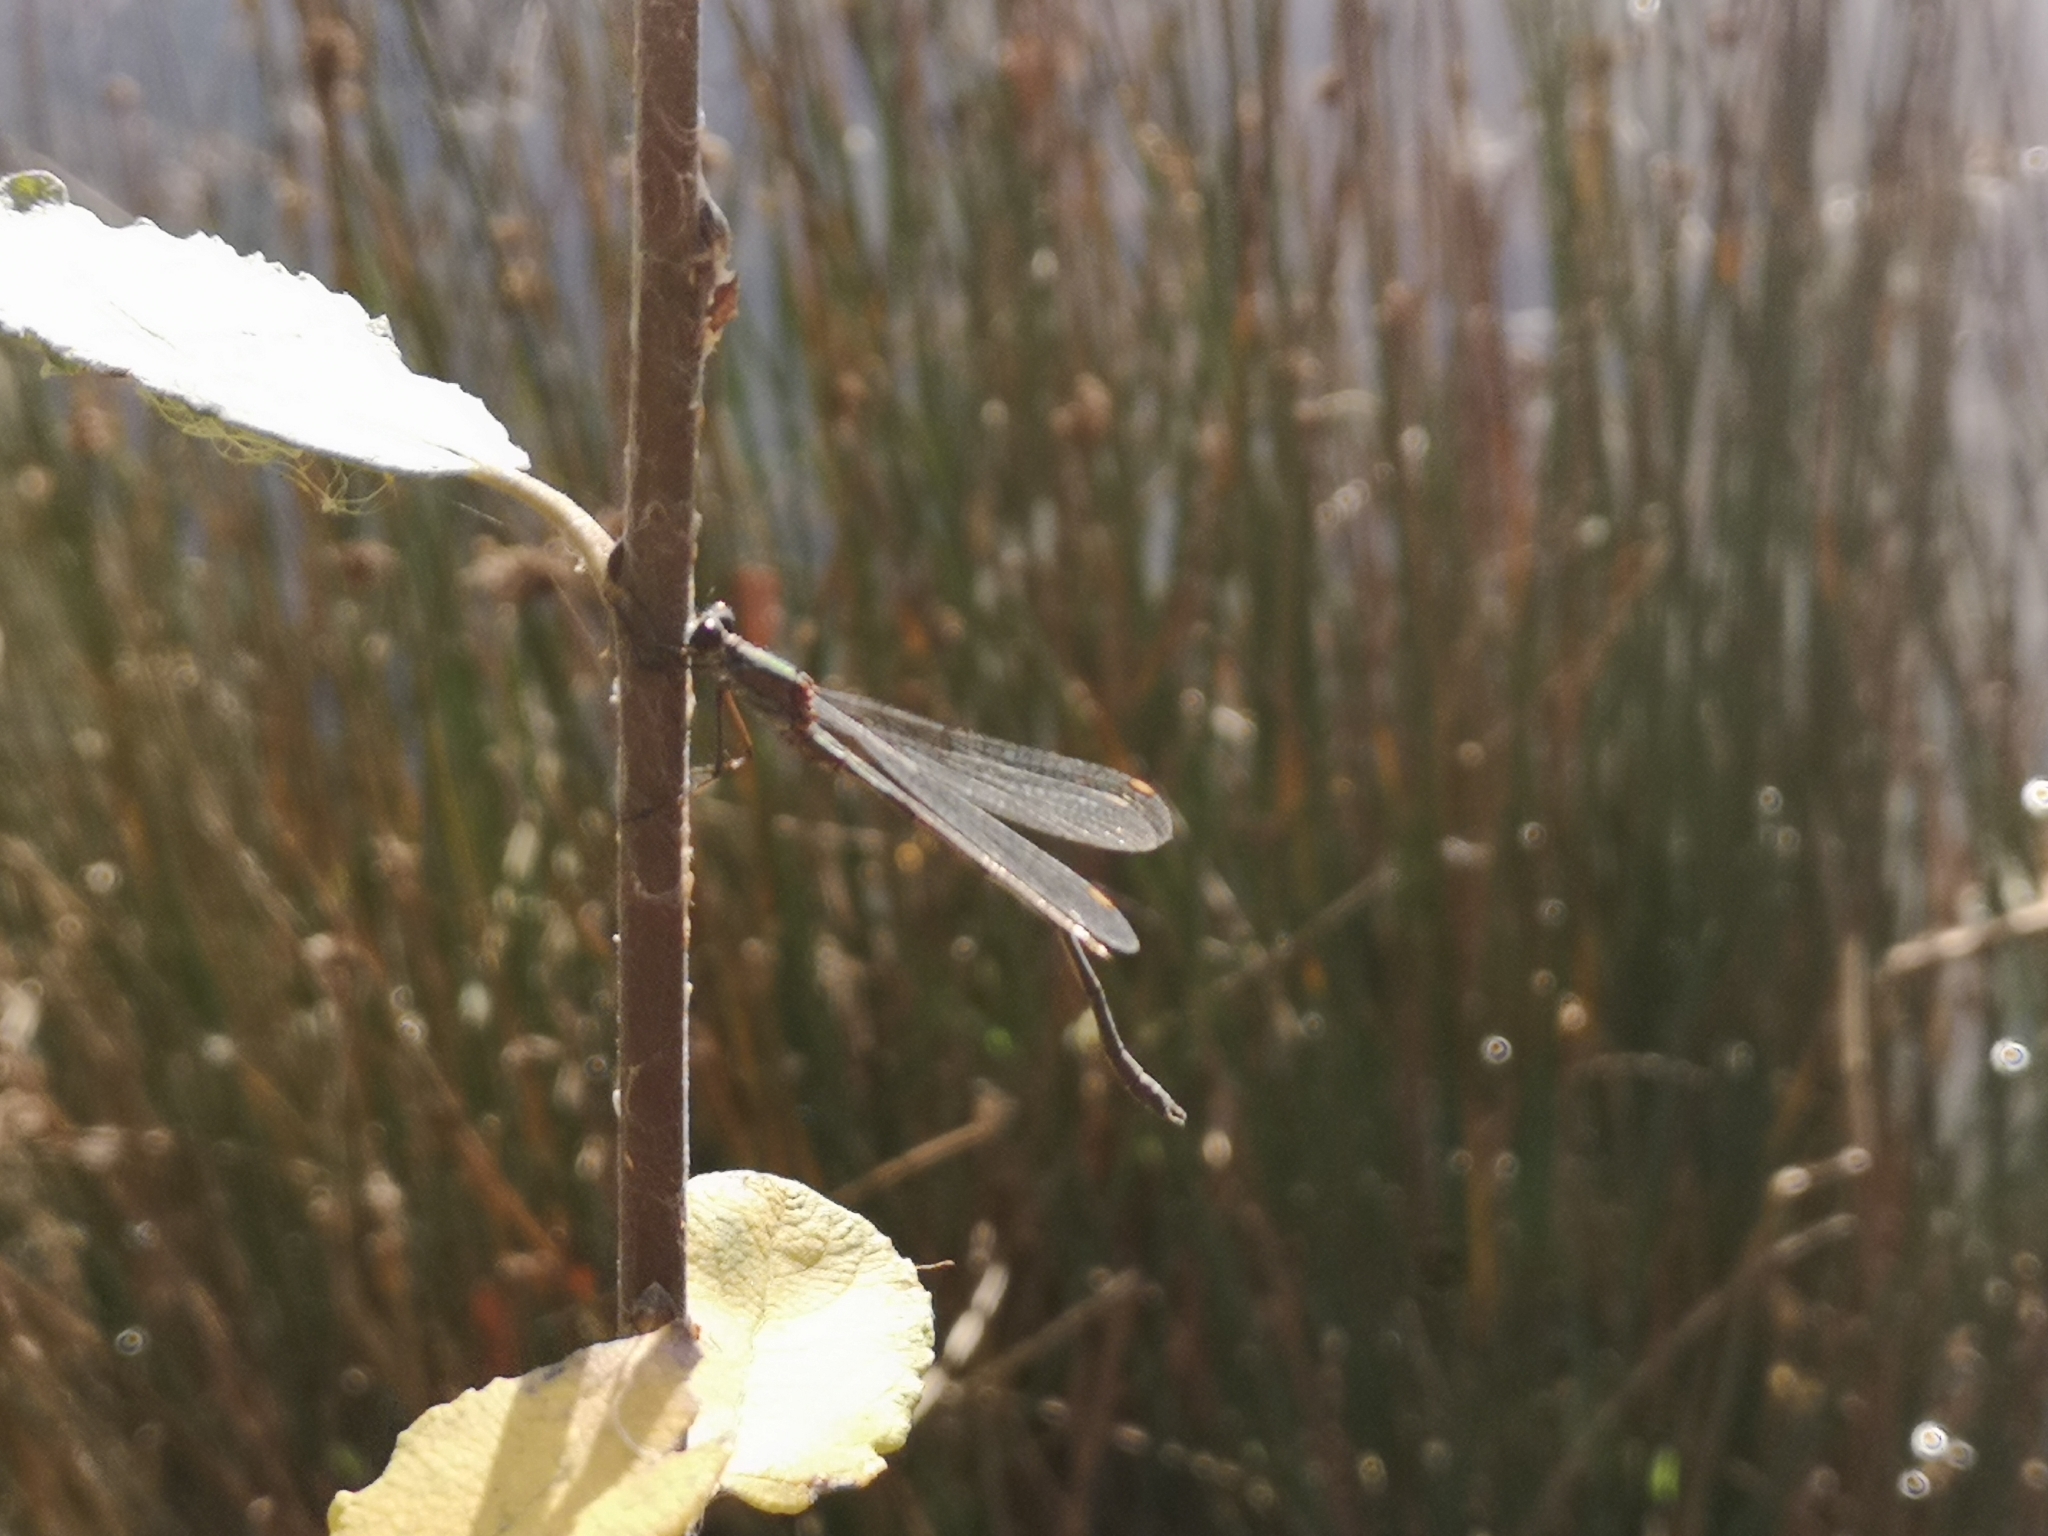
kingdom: Animalia
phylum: Arthropoda
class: Insecta
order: Odonata
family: Lestidae
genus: Chalcolestes
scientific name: Chalcolestes viridis
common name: Green emerald damselfly
